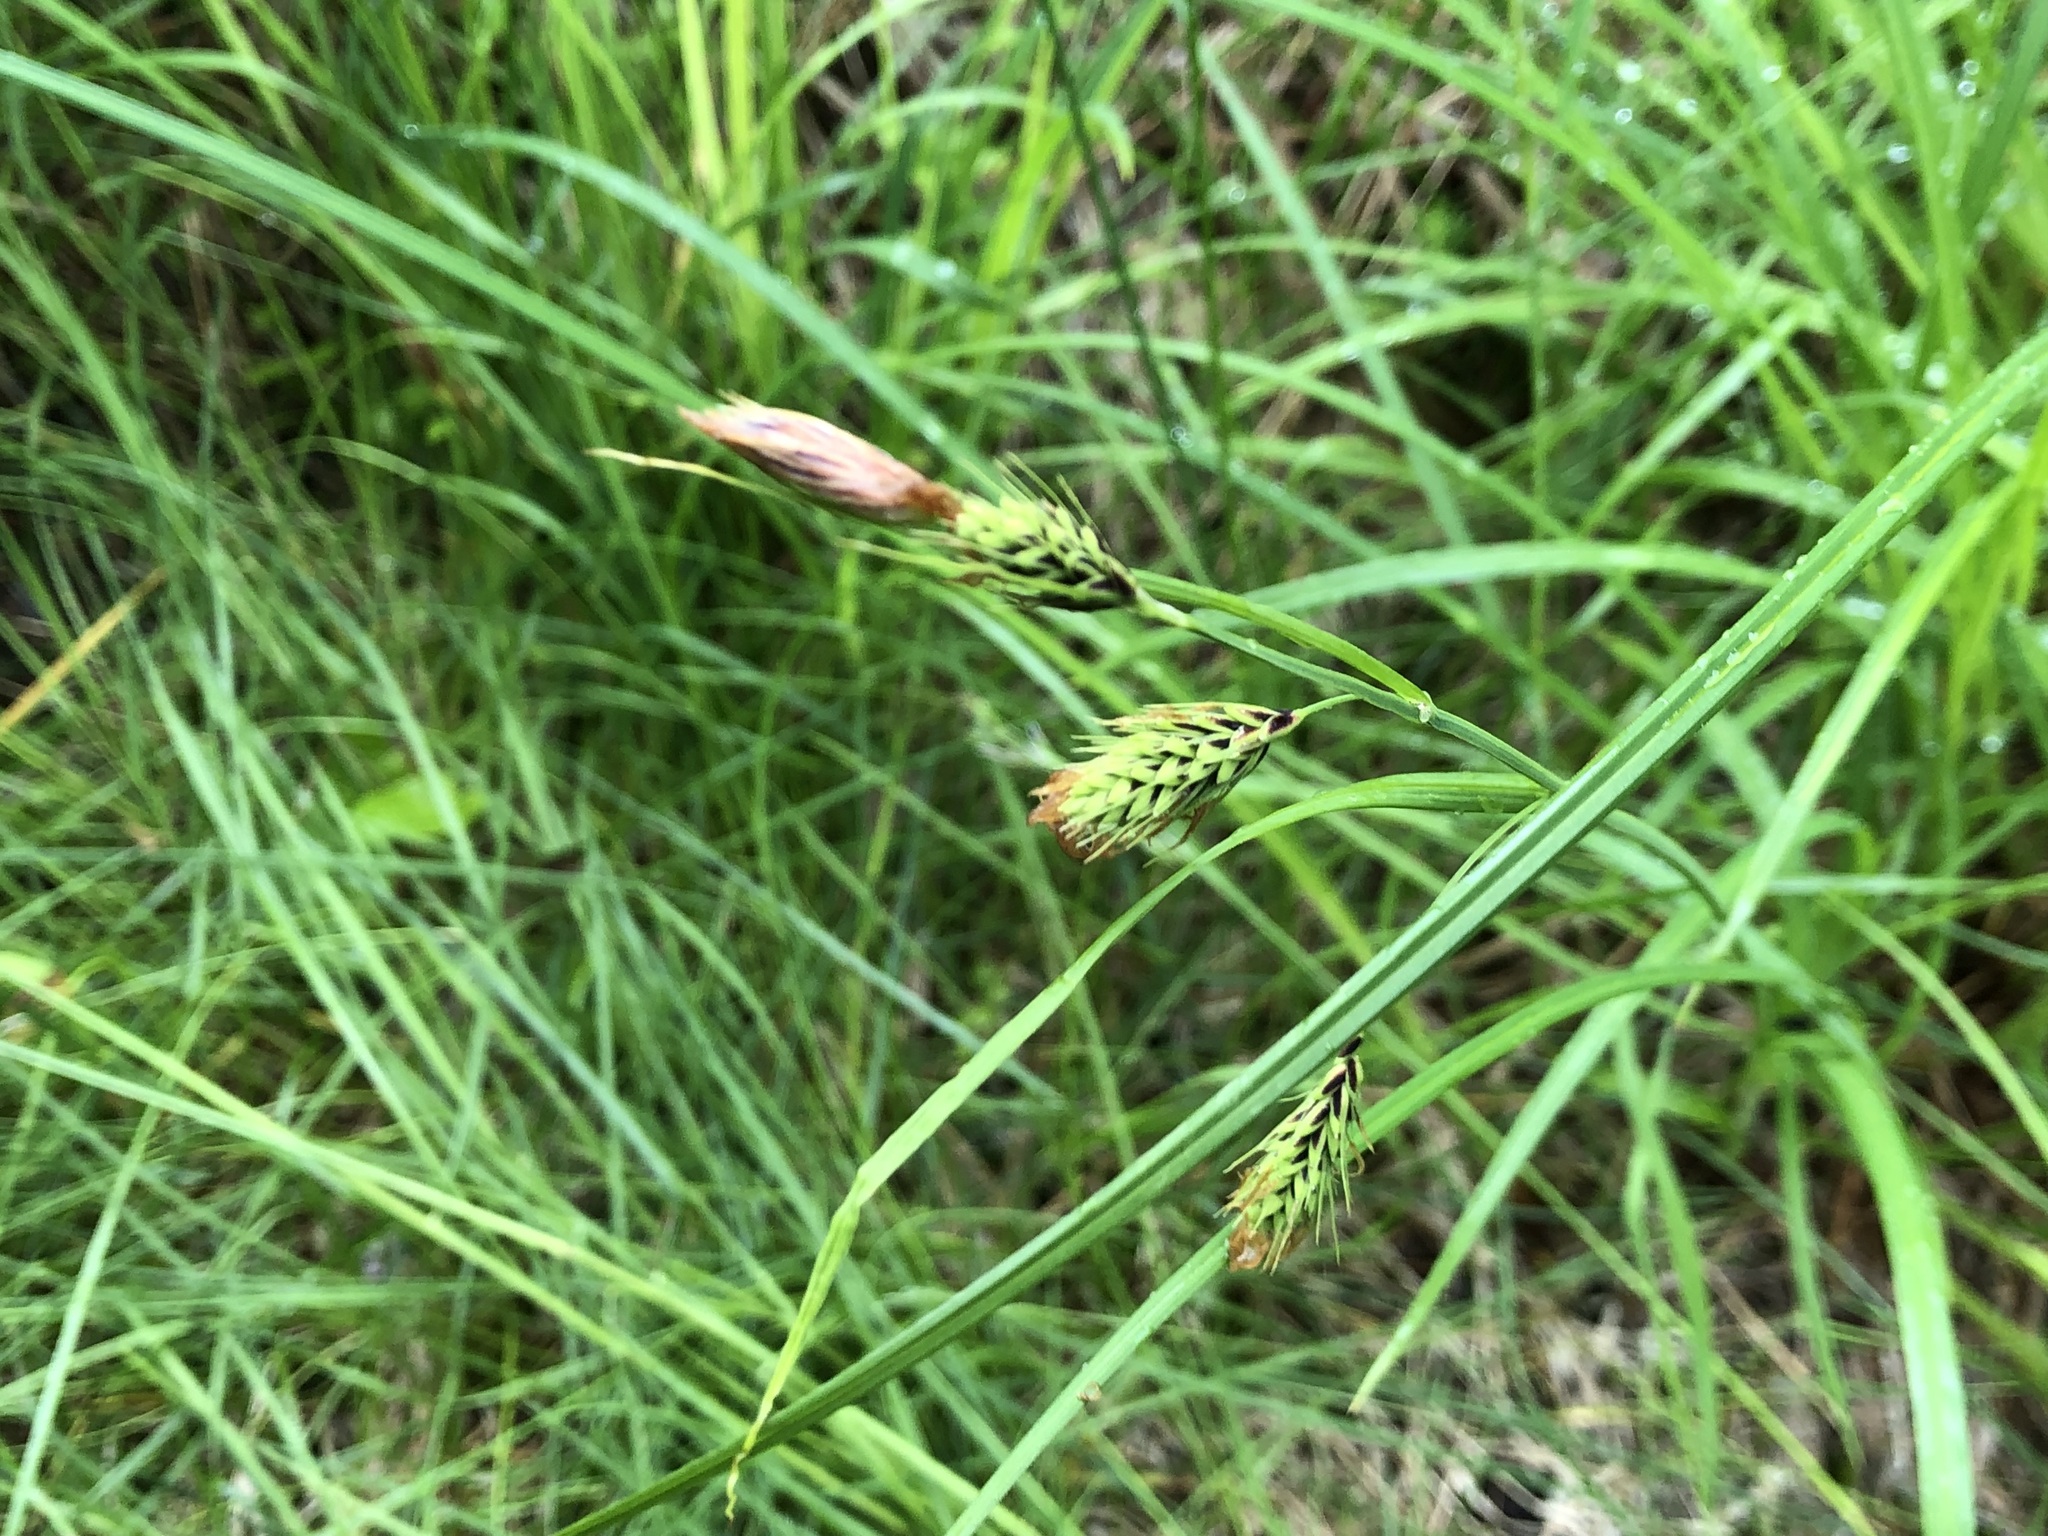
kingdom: Plantae
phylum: Tracheophyta
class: Liliopsida
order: Poales
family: Cyperaceae
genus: Carex
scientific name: Carex macrochaeta
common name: Alaska large awn sedge
